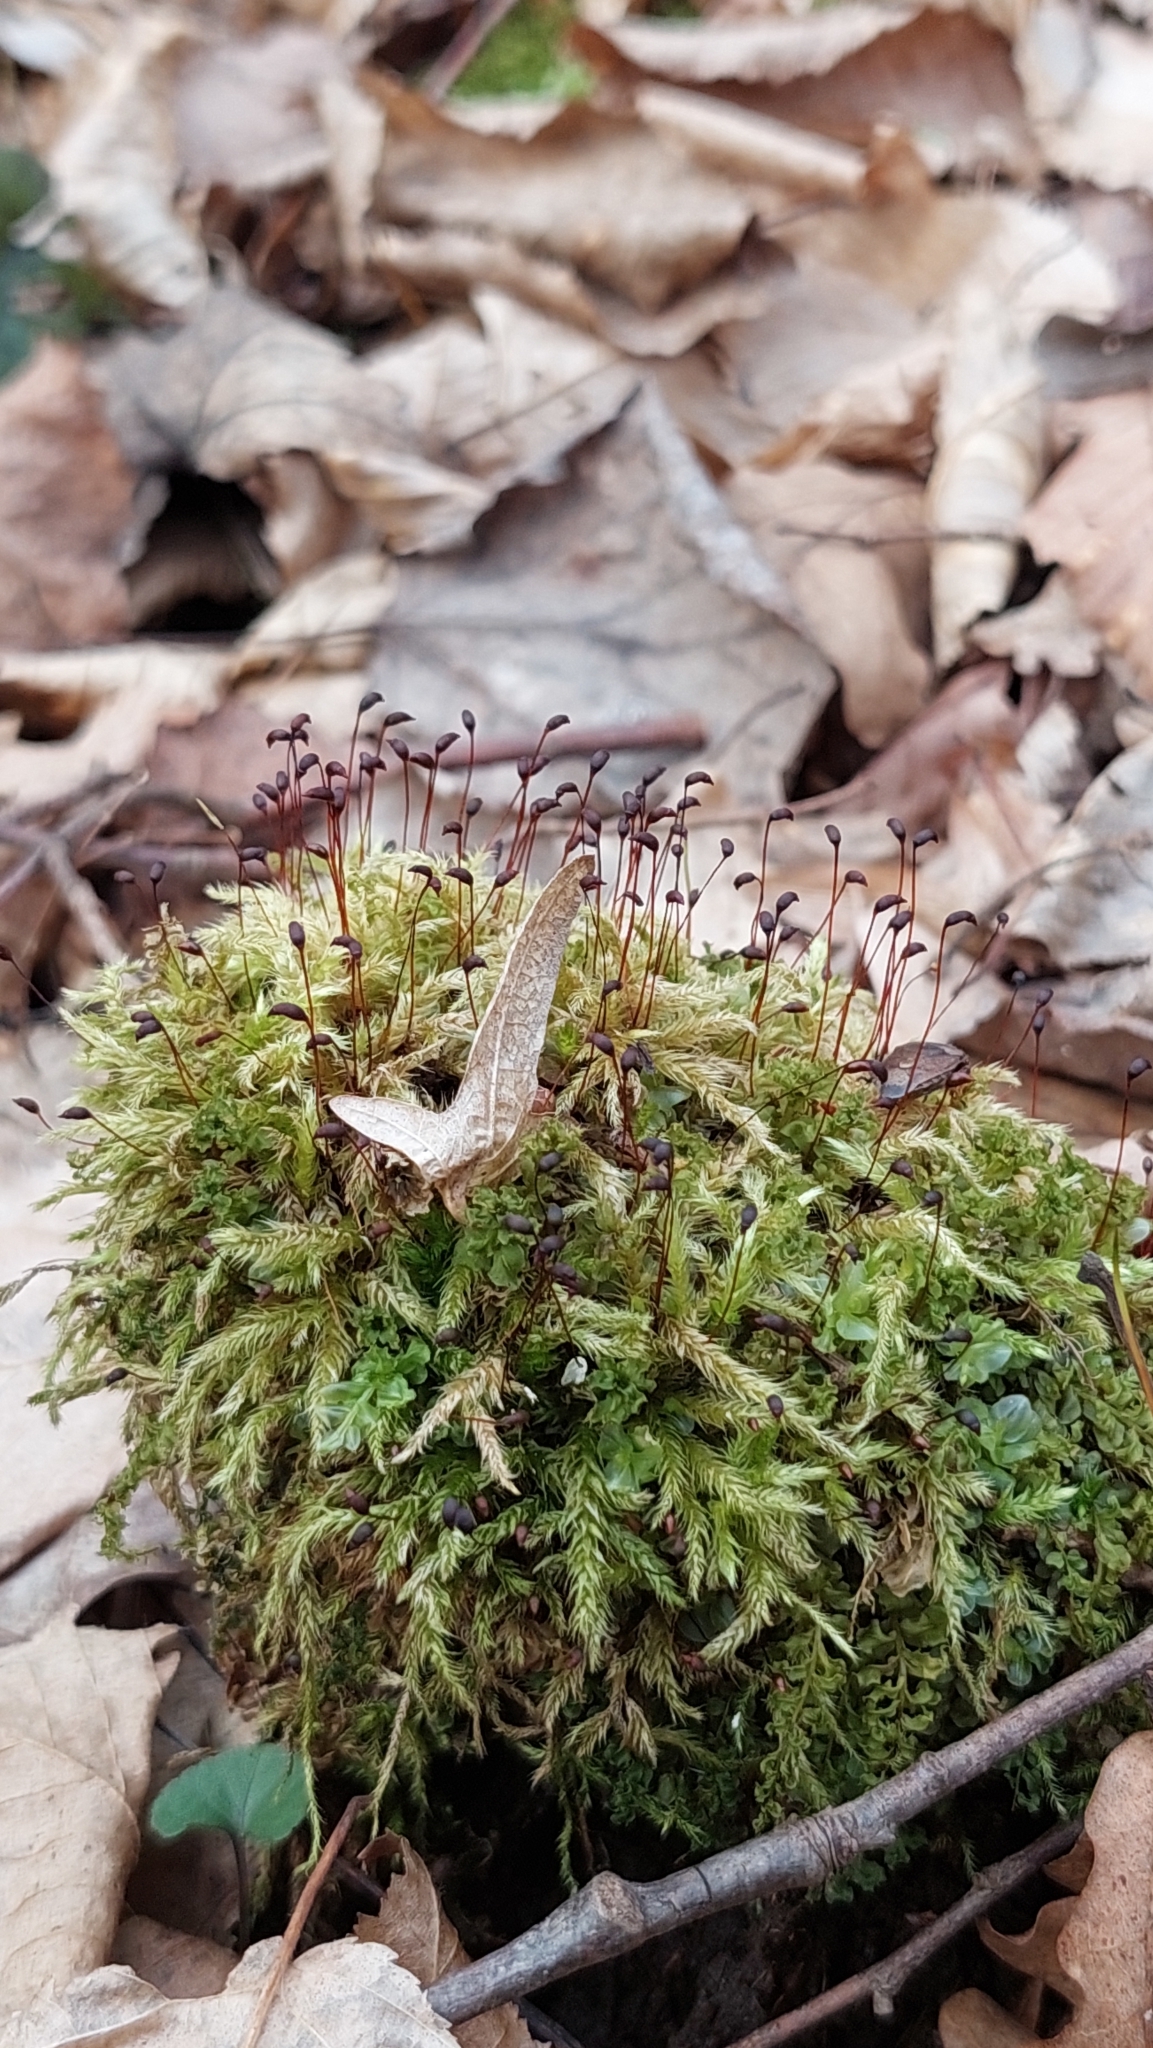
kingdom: Plantae
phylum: Bryophyta
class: Bryopsida
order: Hypnales
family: Brachytheciaceae
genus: Brachythecium
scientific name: Brachythecium rutabulum
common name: Rough-stalked feather-moss
